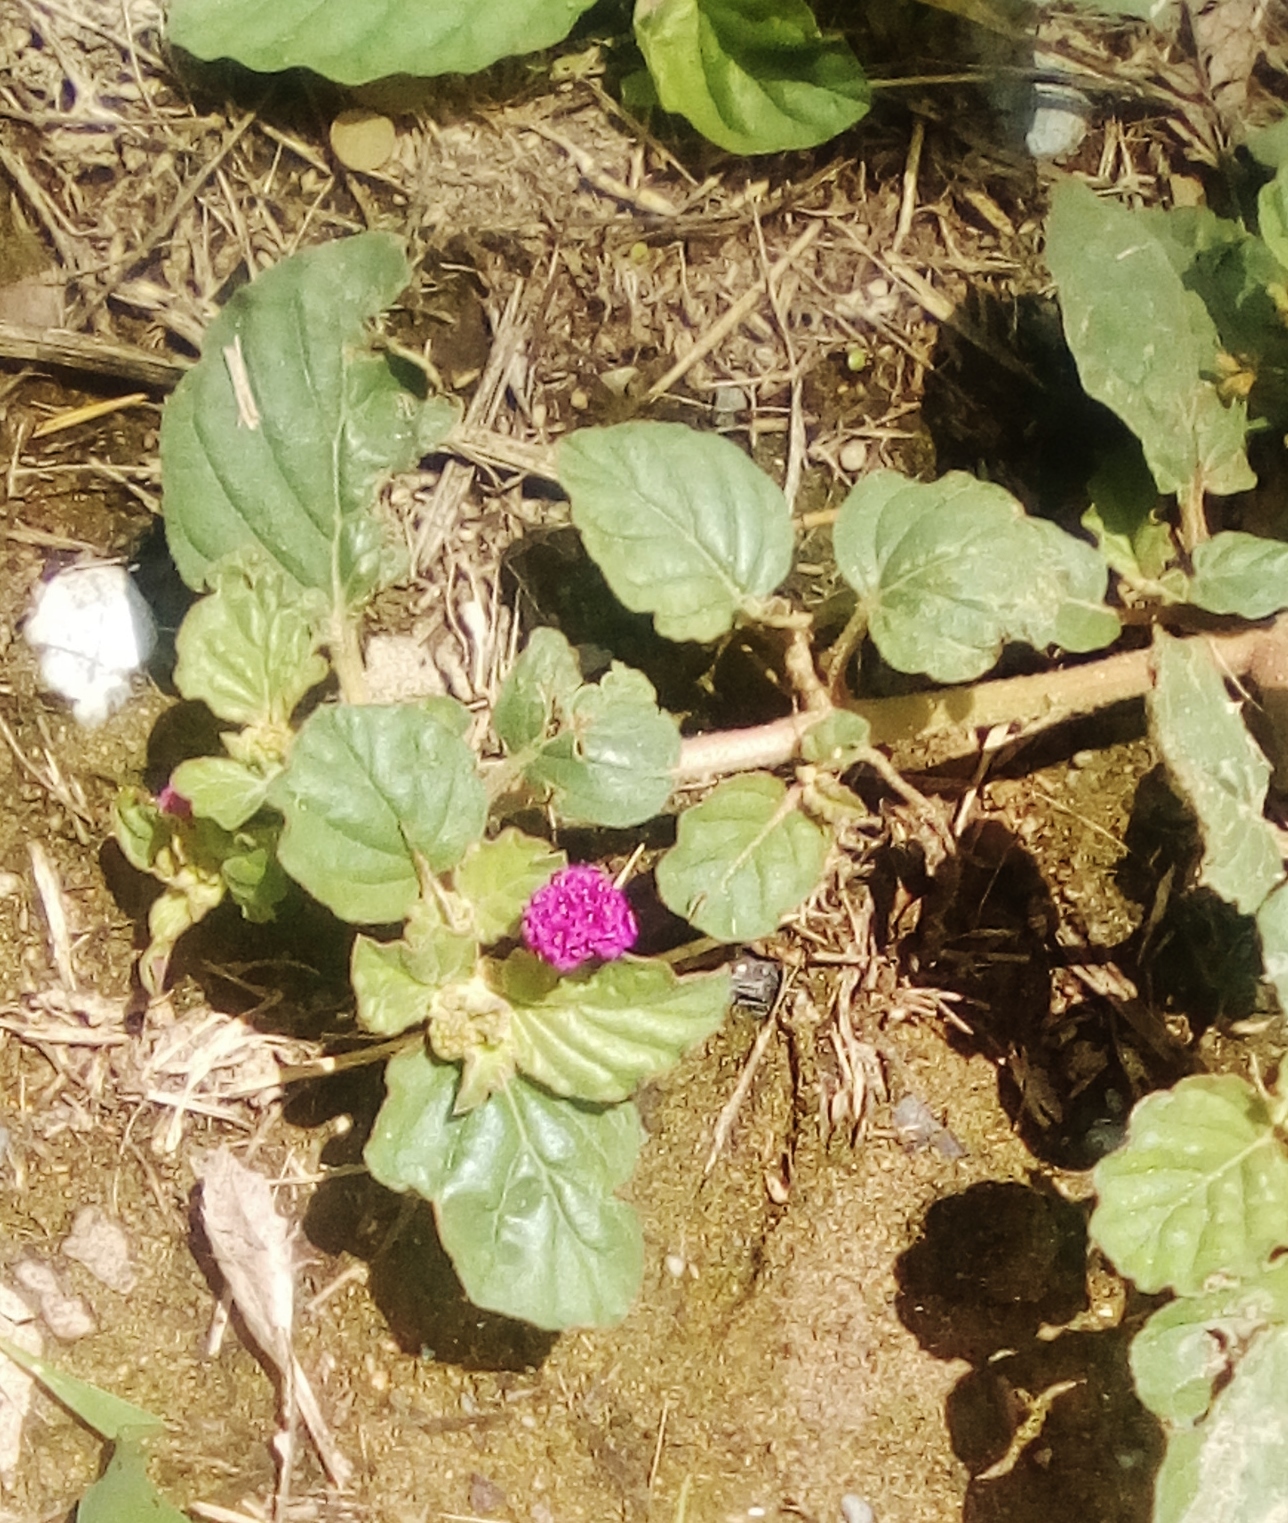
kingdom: Plantae
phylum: Tracheophyta
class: Magnoliopsida
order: Caryophyllales
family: Nyctaginaceae
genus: Boerhavia
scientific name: Boerhavia coccinea
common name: Scarlet spiderling
